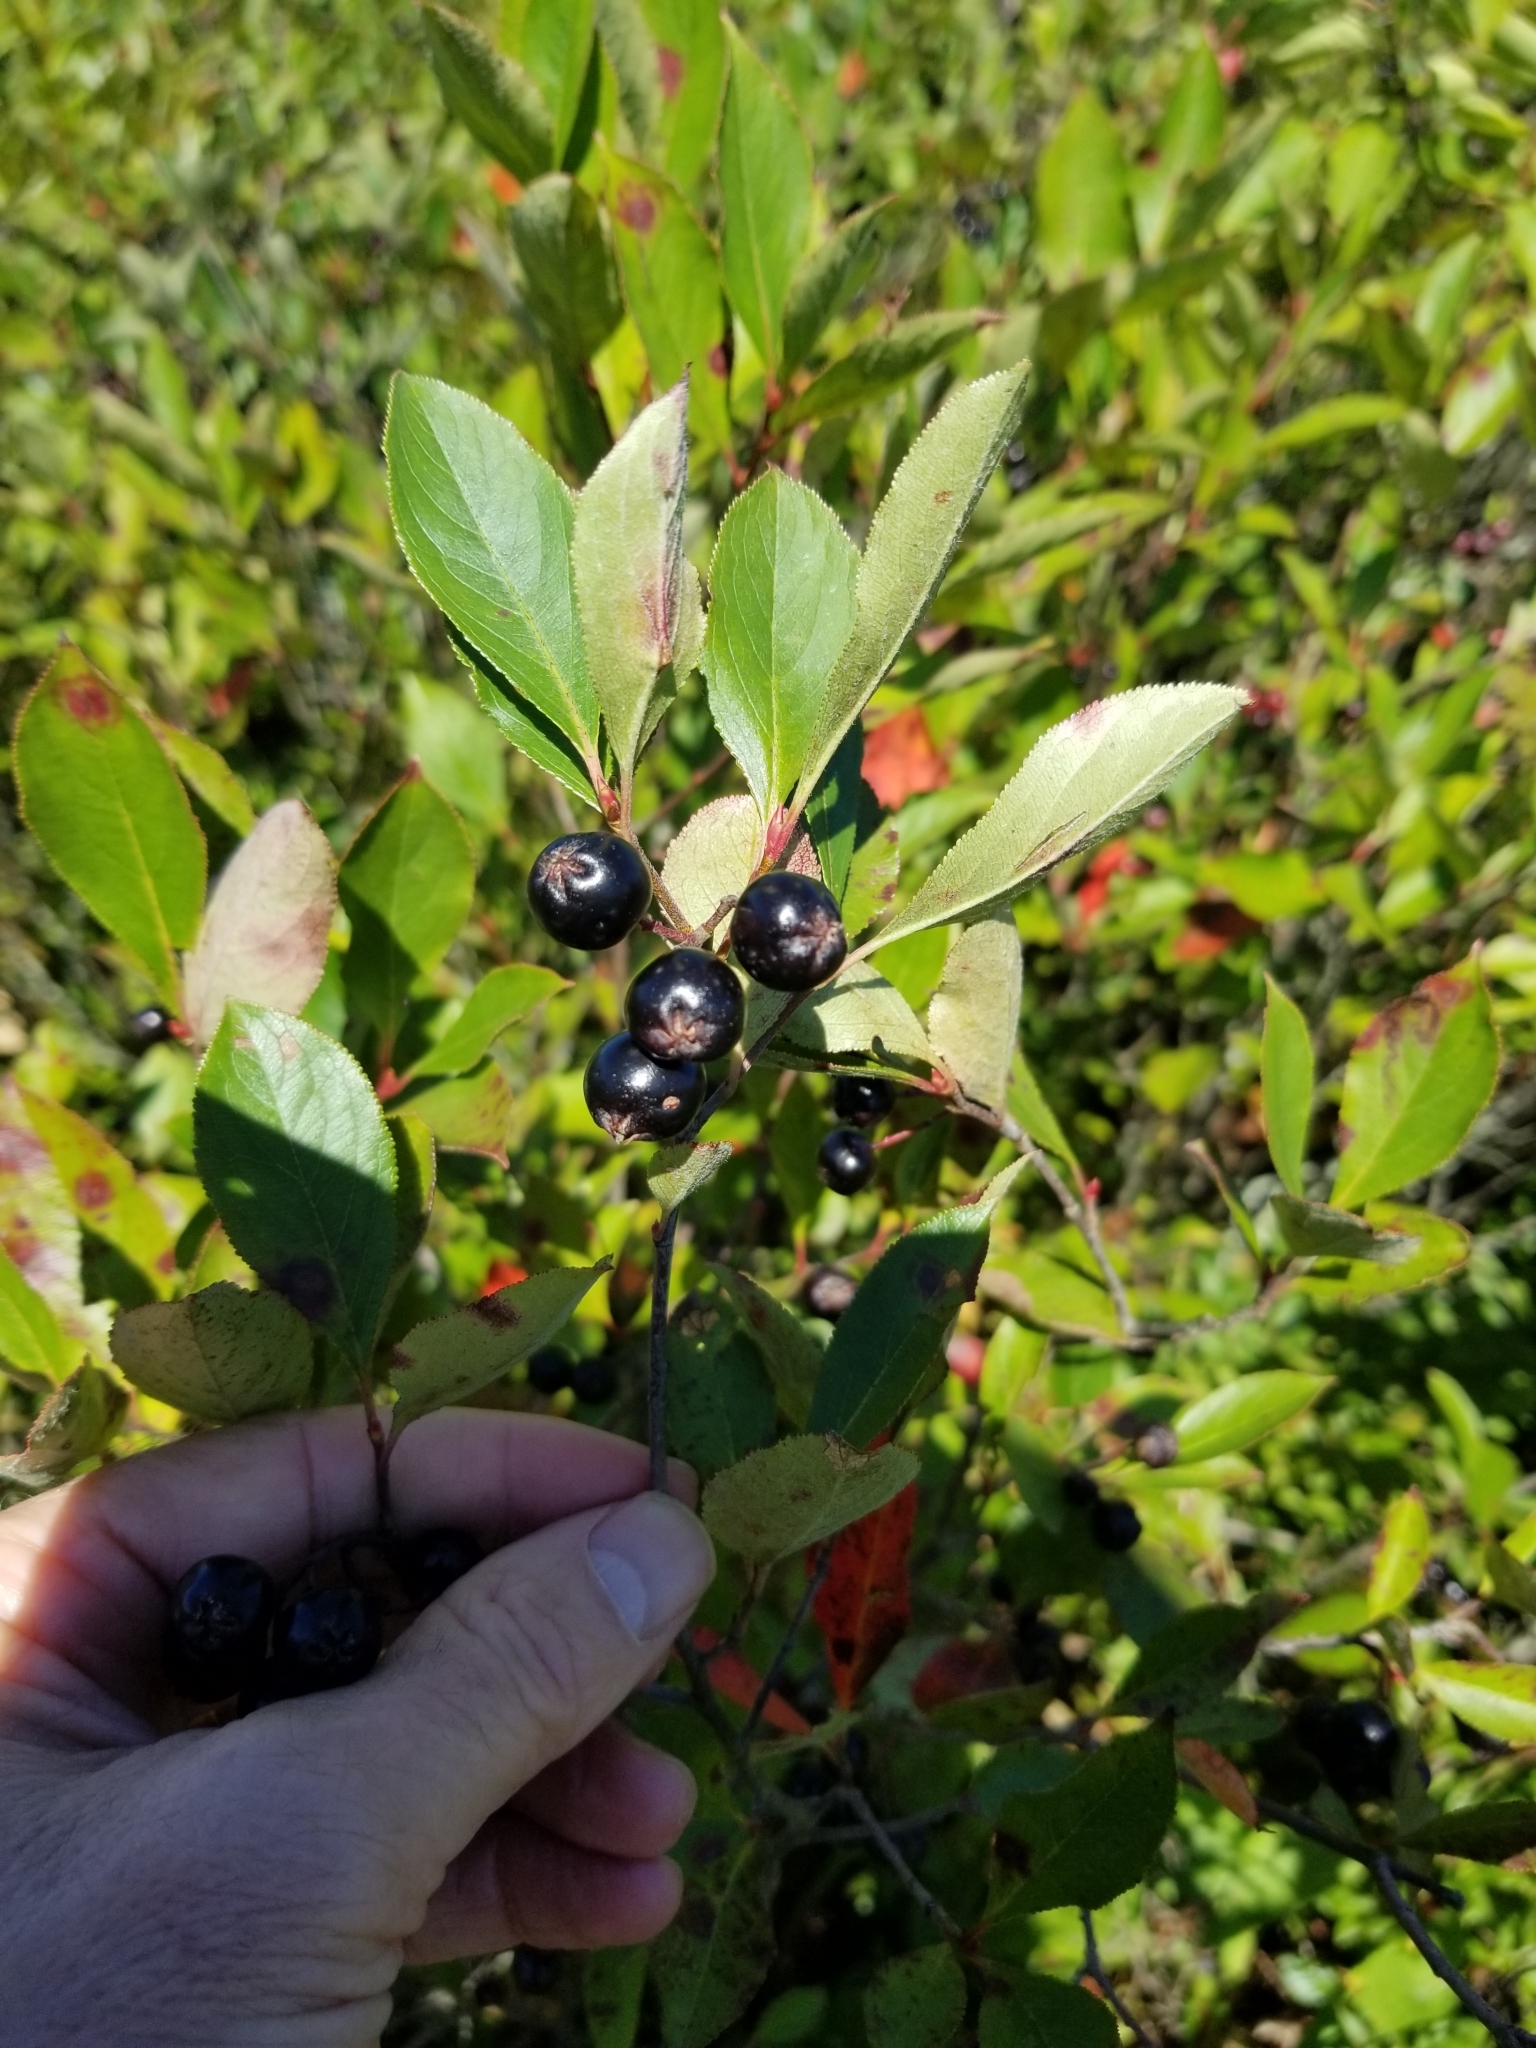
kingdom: Plantae
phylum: Tracheophyta
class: Magnoliopsida
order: Rosales
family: Rosaceae
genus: Aronia
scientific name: Aronia melanocarpa
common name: Black chokeberry
